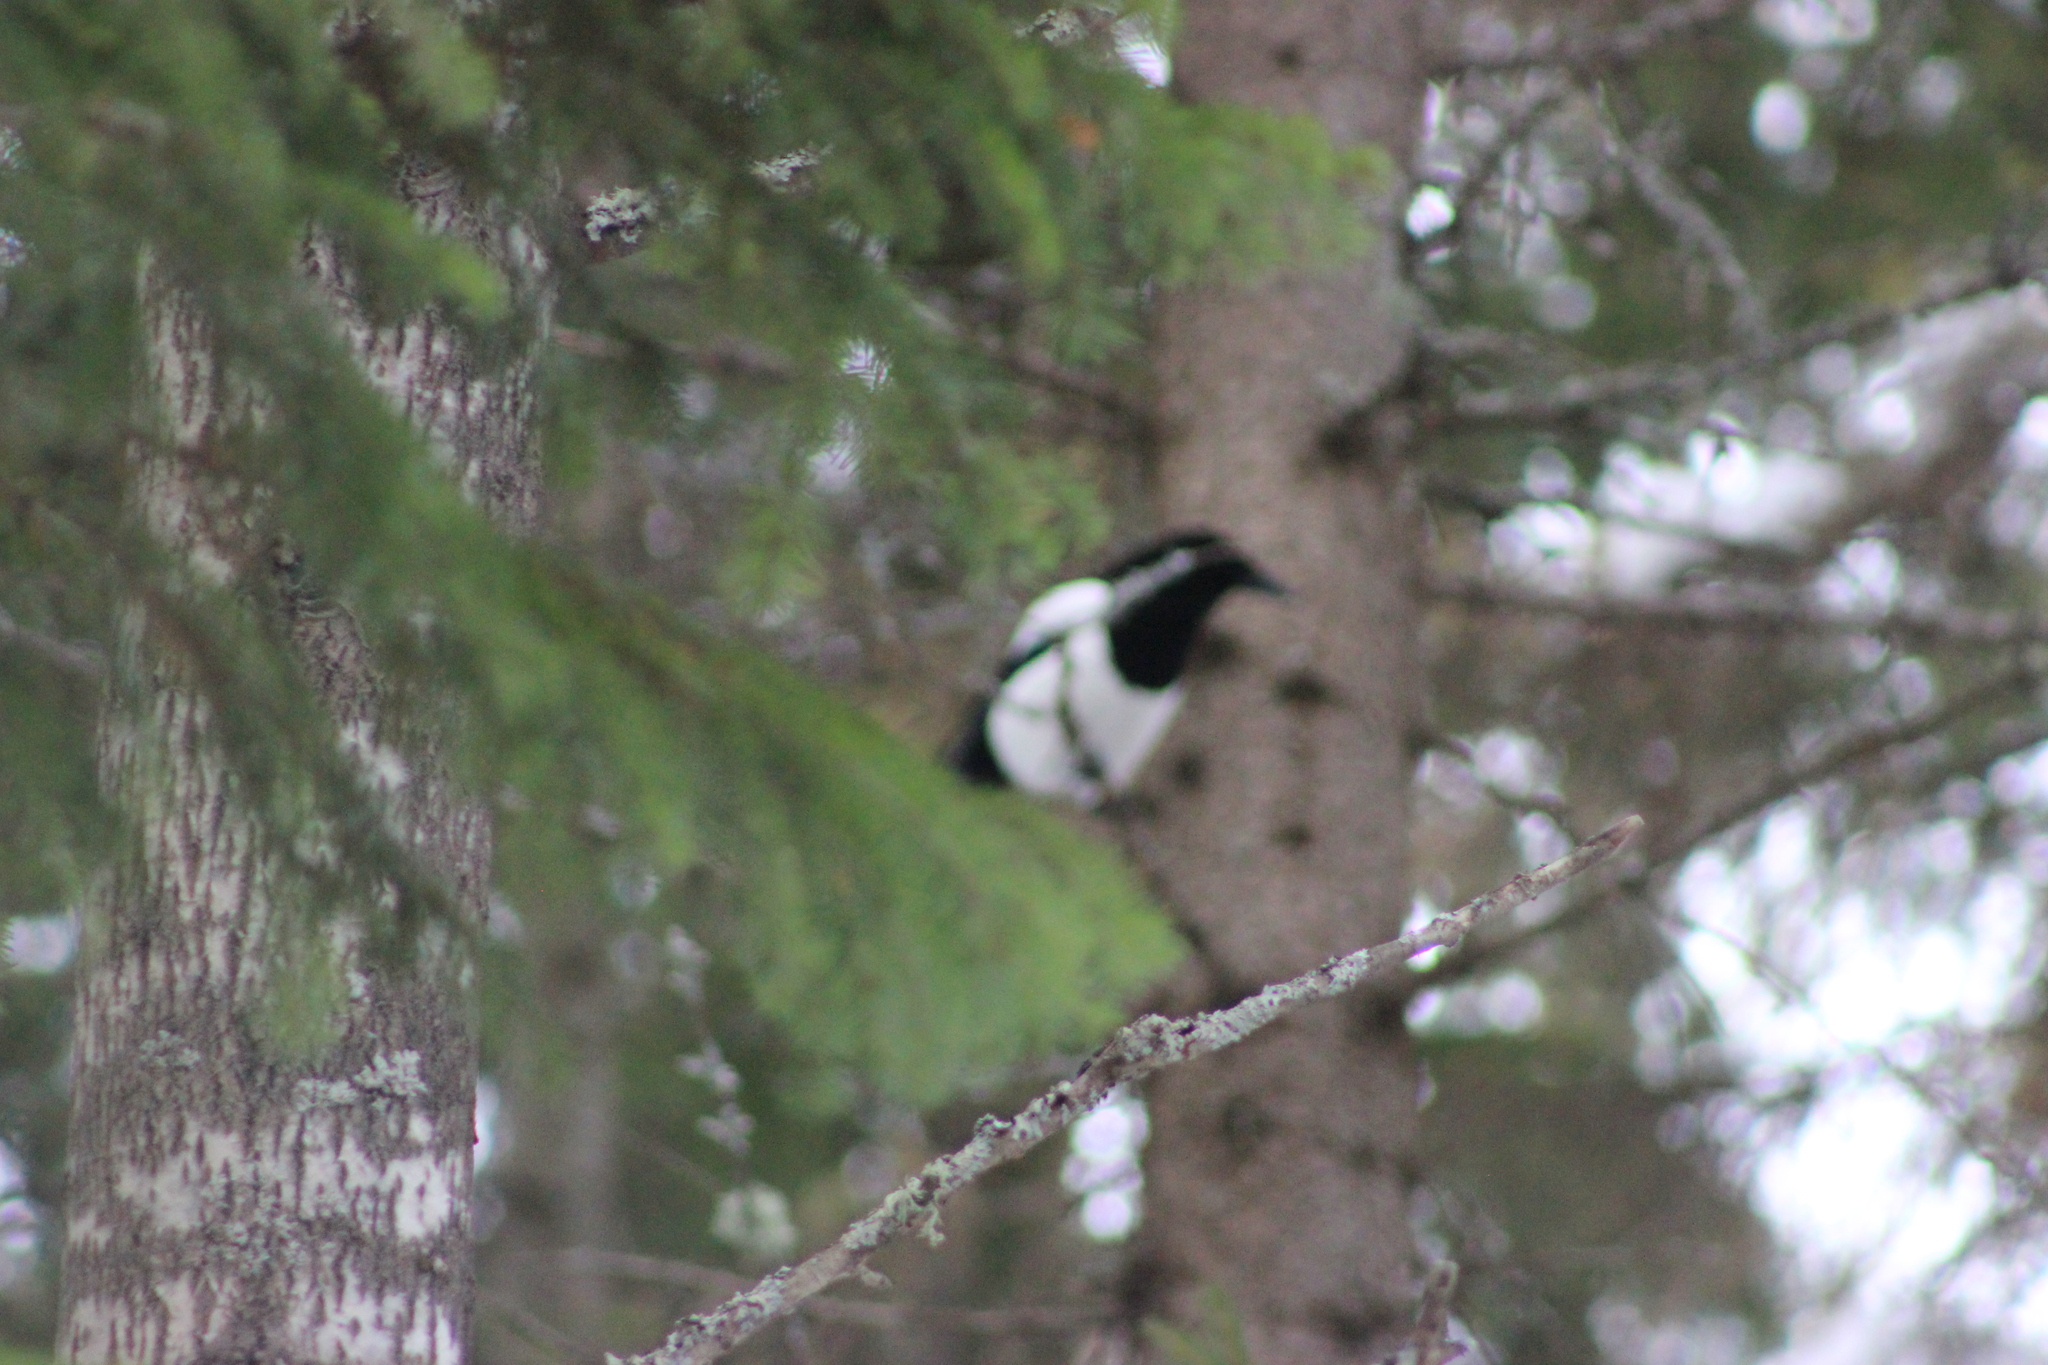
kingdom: Animalia
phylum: Chordata
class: Aves
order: Passeriformes
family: Corvidae
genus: Pica
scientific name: Pica pica
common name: Eurasian magpie
